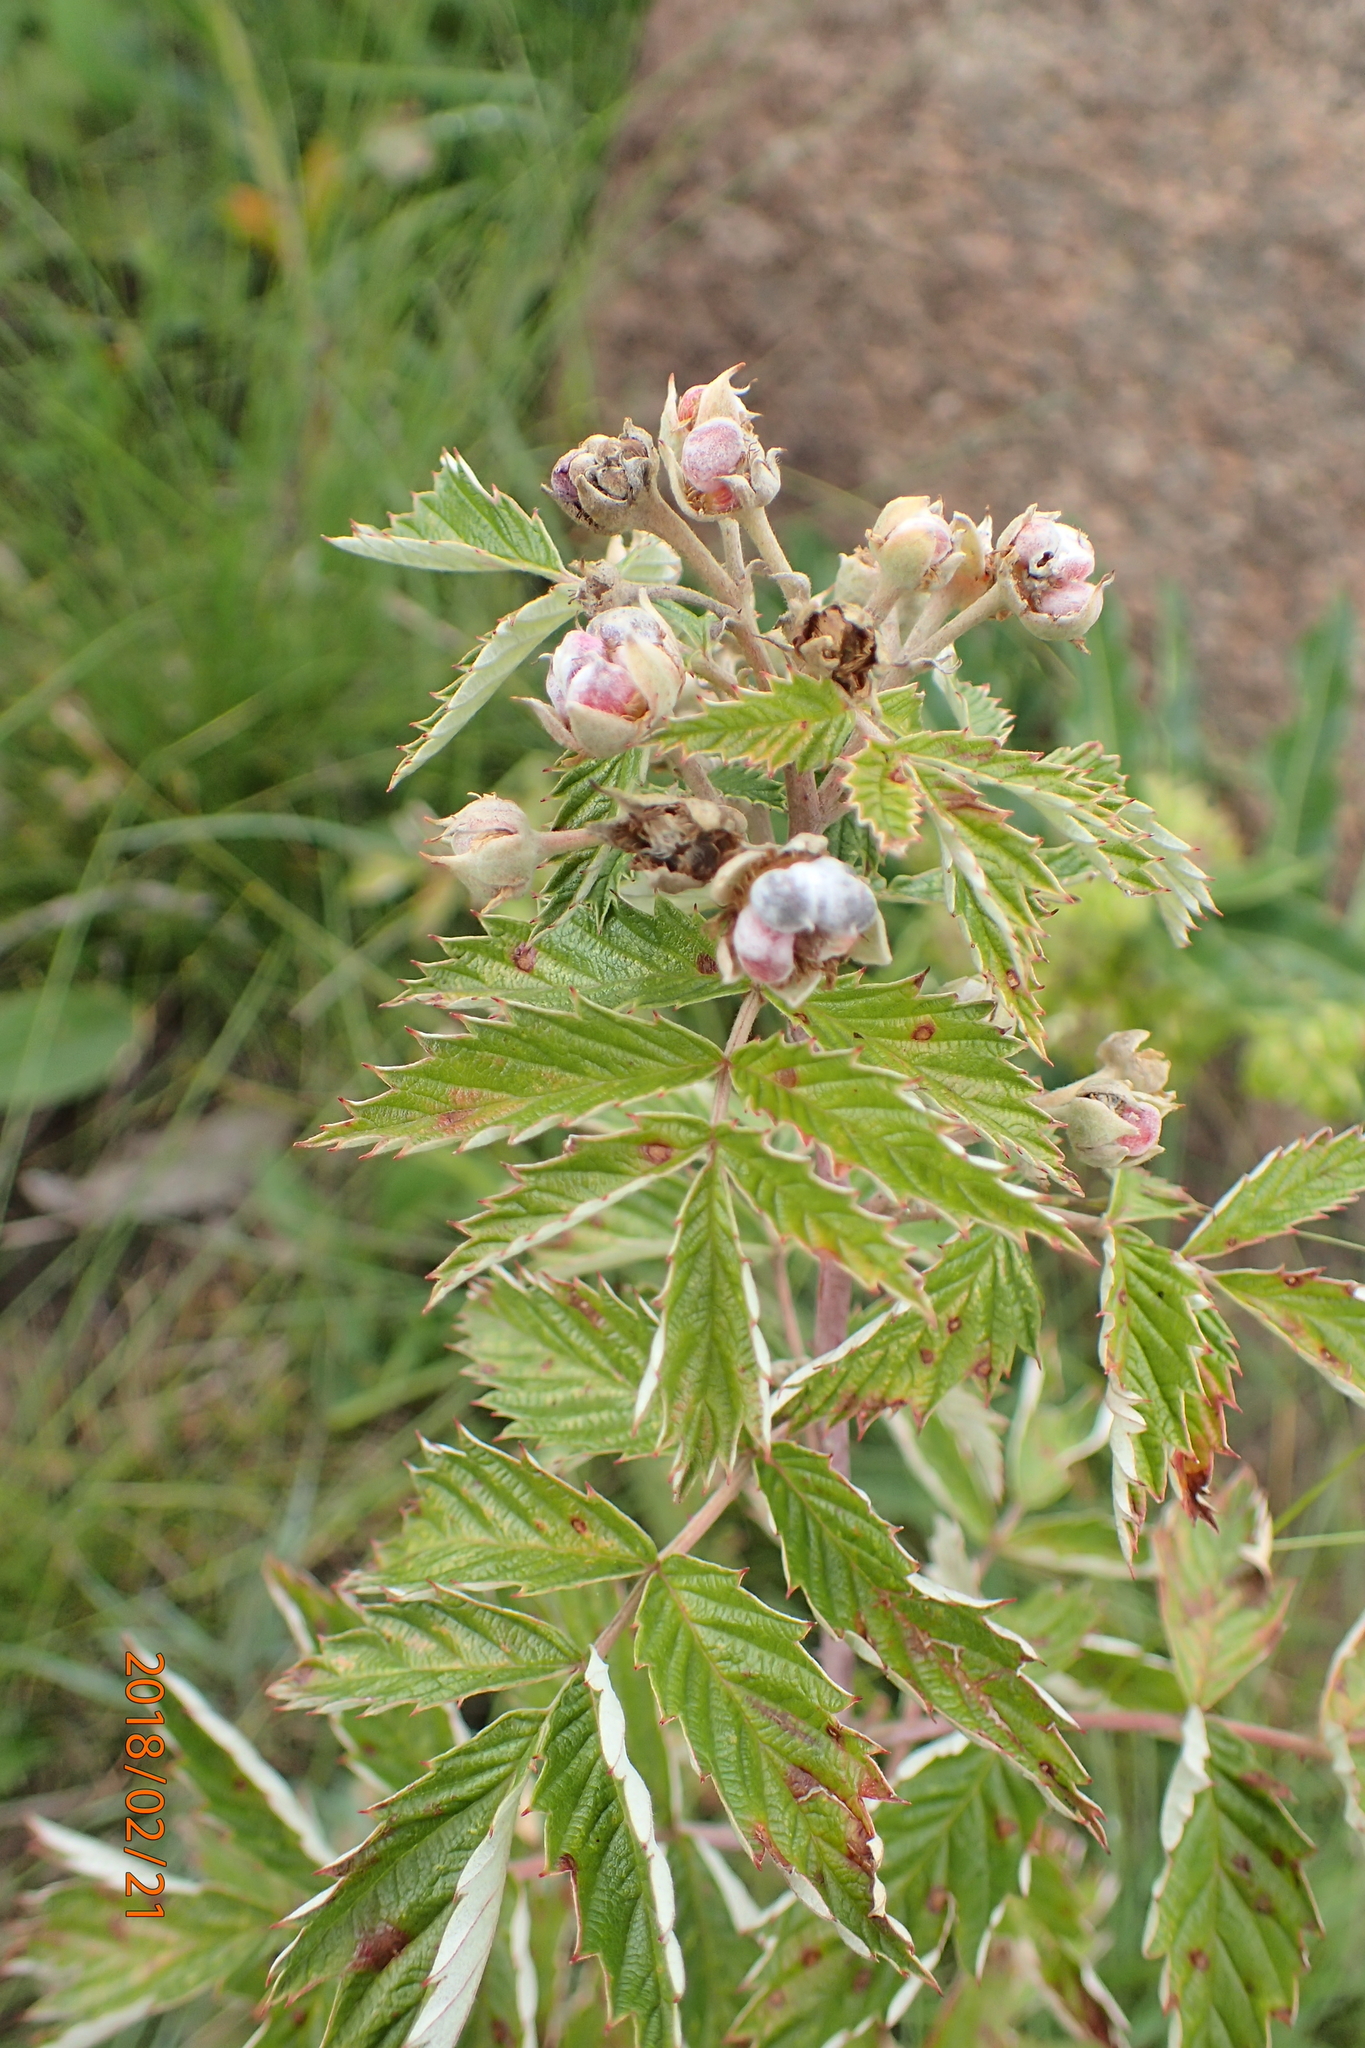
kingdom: Plantae
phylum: Tracheophyta
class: Magnoliopsida
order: Rosales
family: Rosaceae
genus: Rubus
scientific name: Rubus ludwigii
